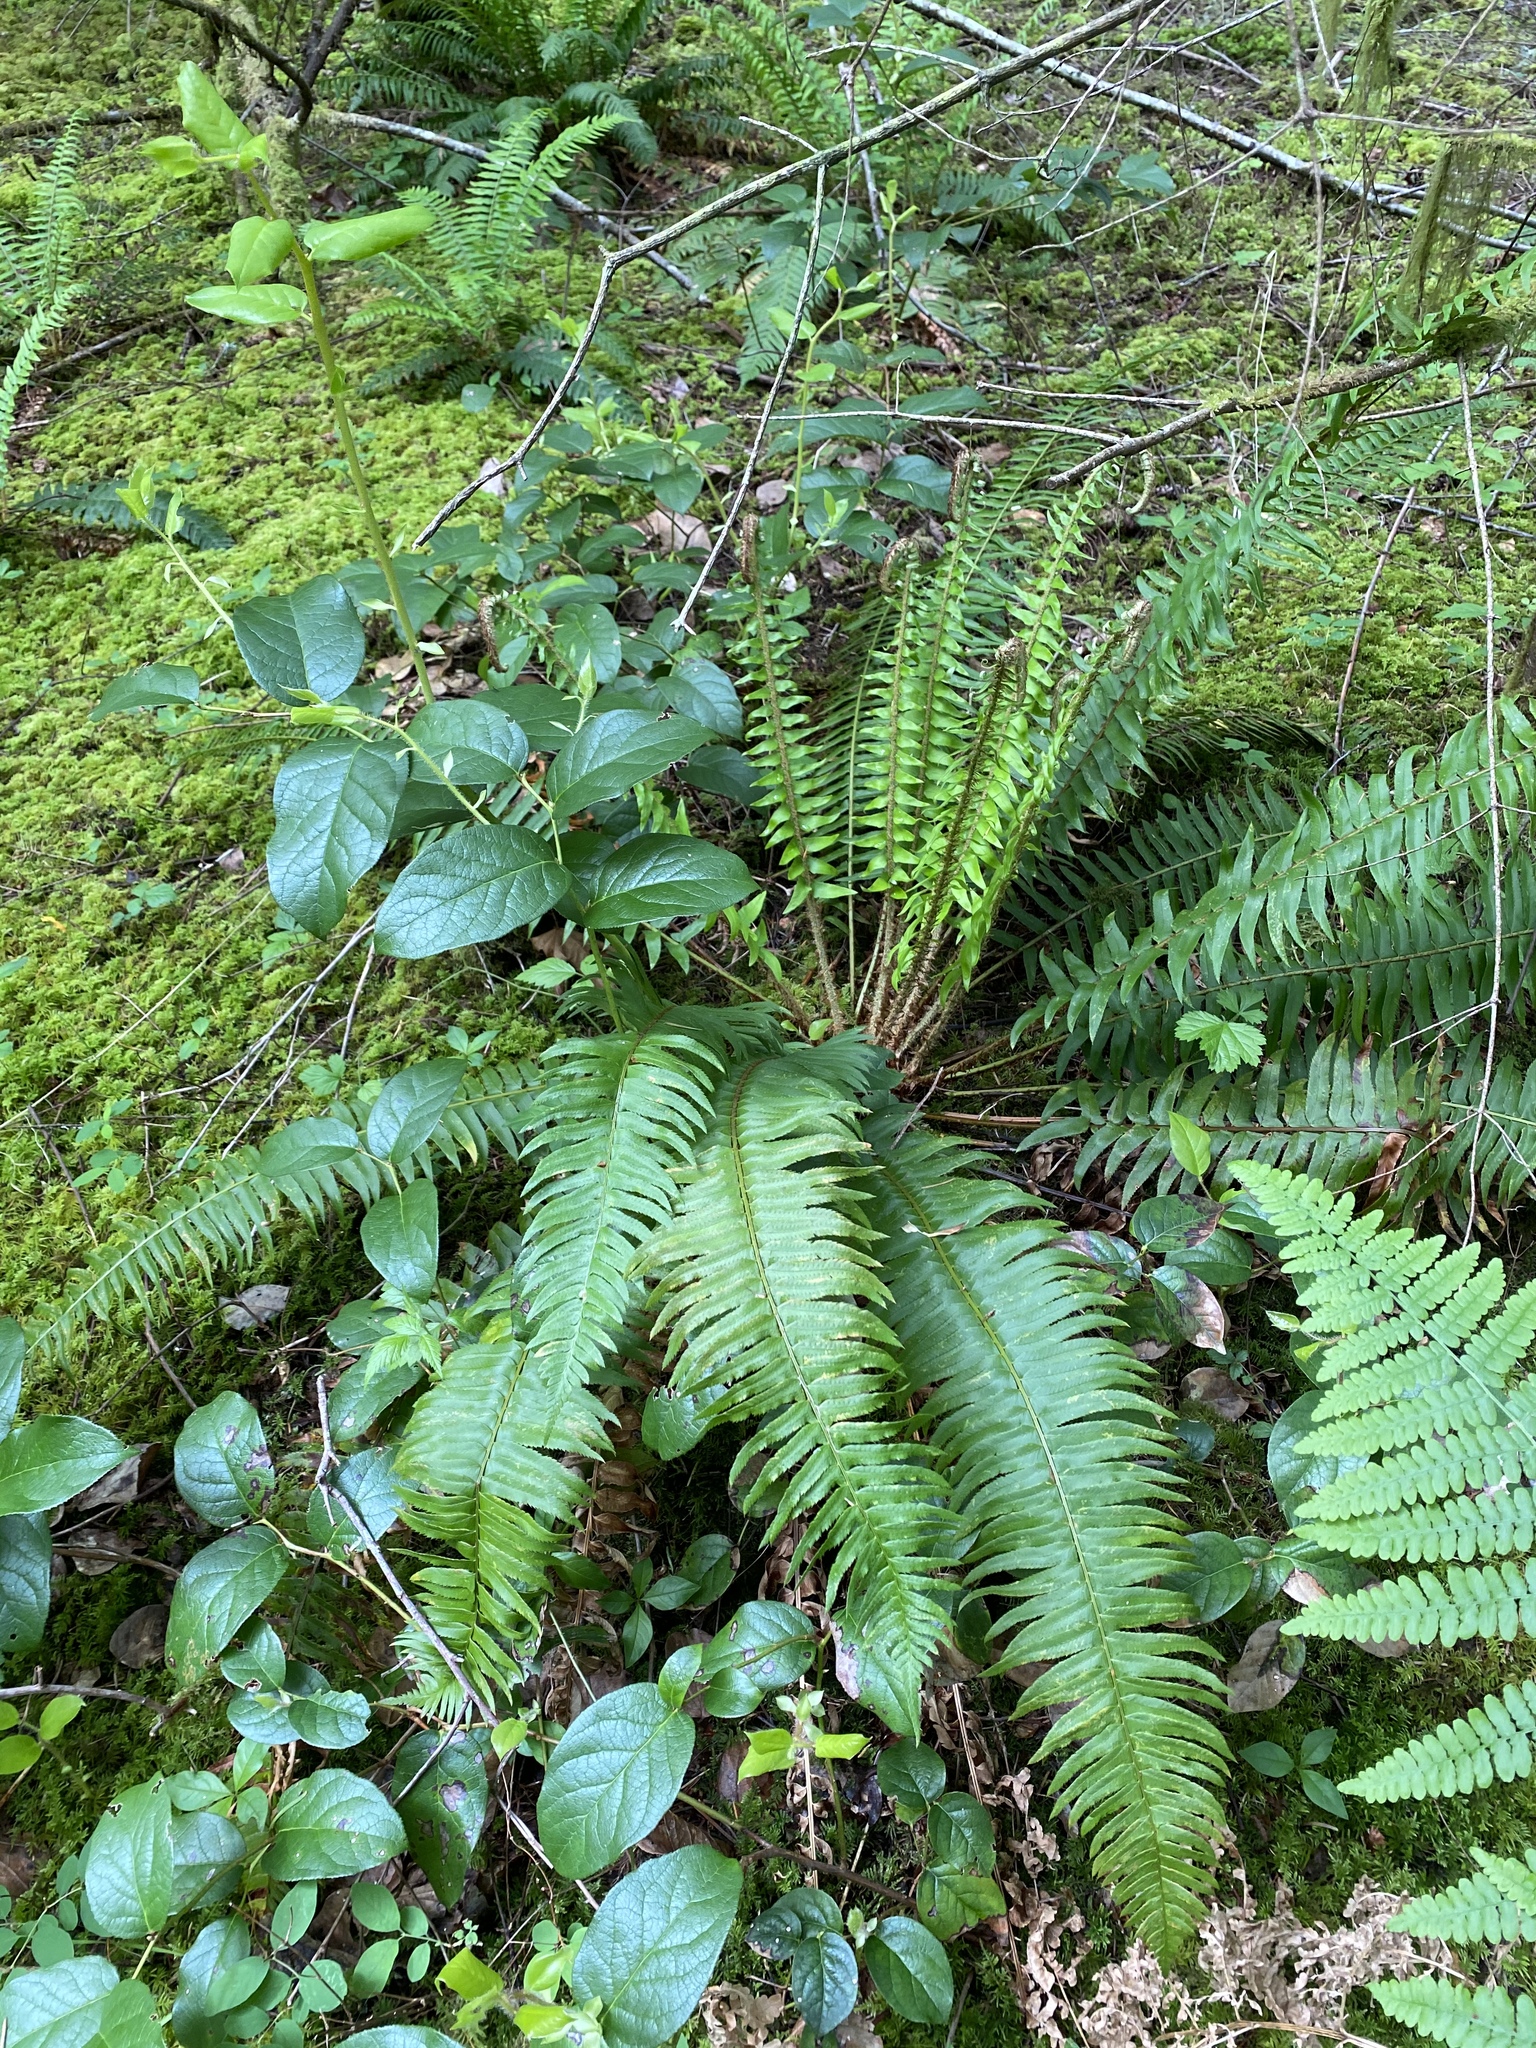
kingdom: Plantae
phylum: Tracheophyta
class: Polypodiopsida
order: Polypodiales
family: Dryopteridaceae
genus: Polystichum
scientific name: Polystichum munitum
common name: Western sword-fern
